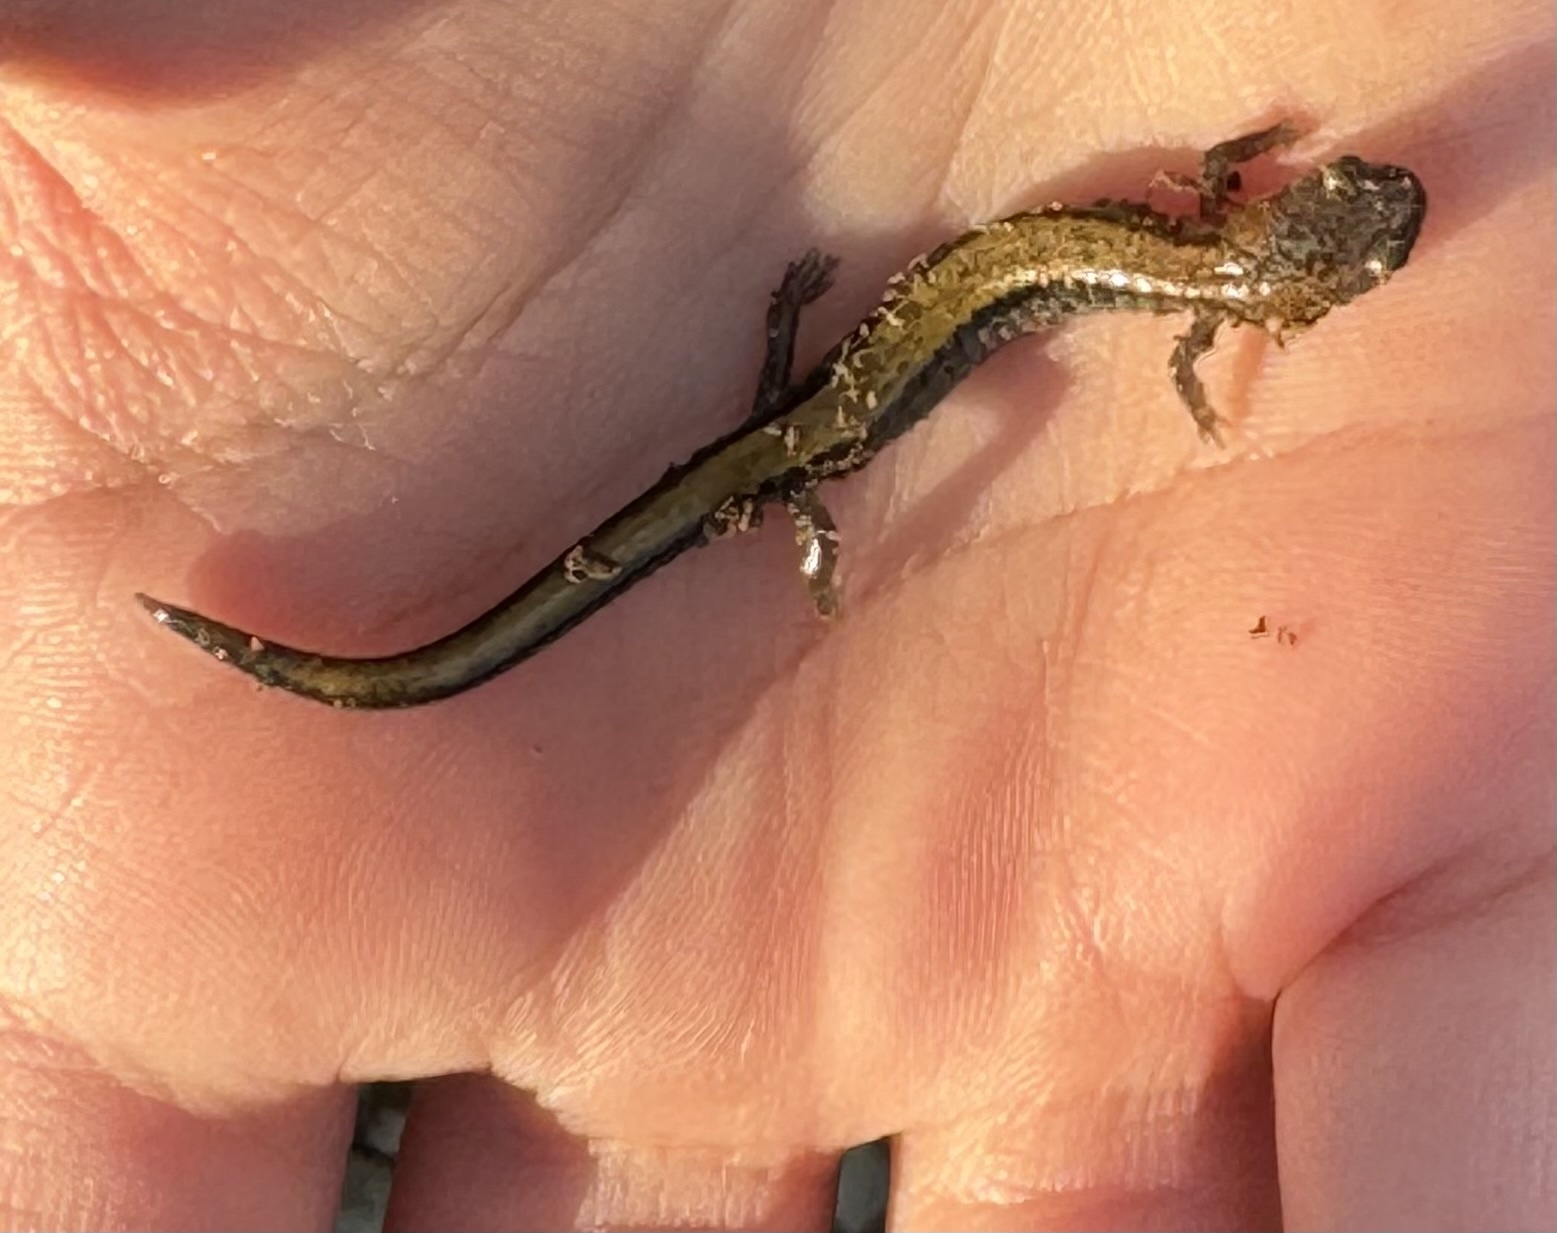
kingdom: Animalia
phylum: Chordata
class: Amphibia
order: Caudata
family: Plethodontidae
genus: Plethodon
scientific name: Plethodon cinereus
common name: Redback salamander
